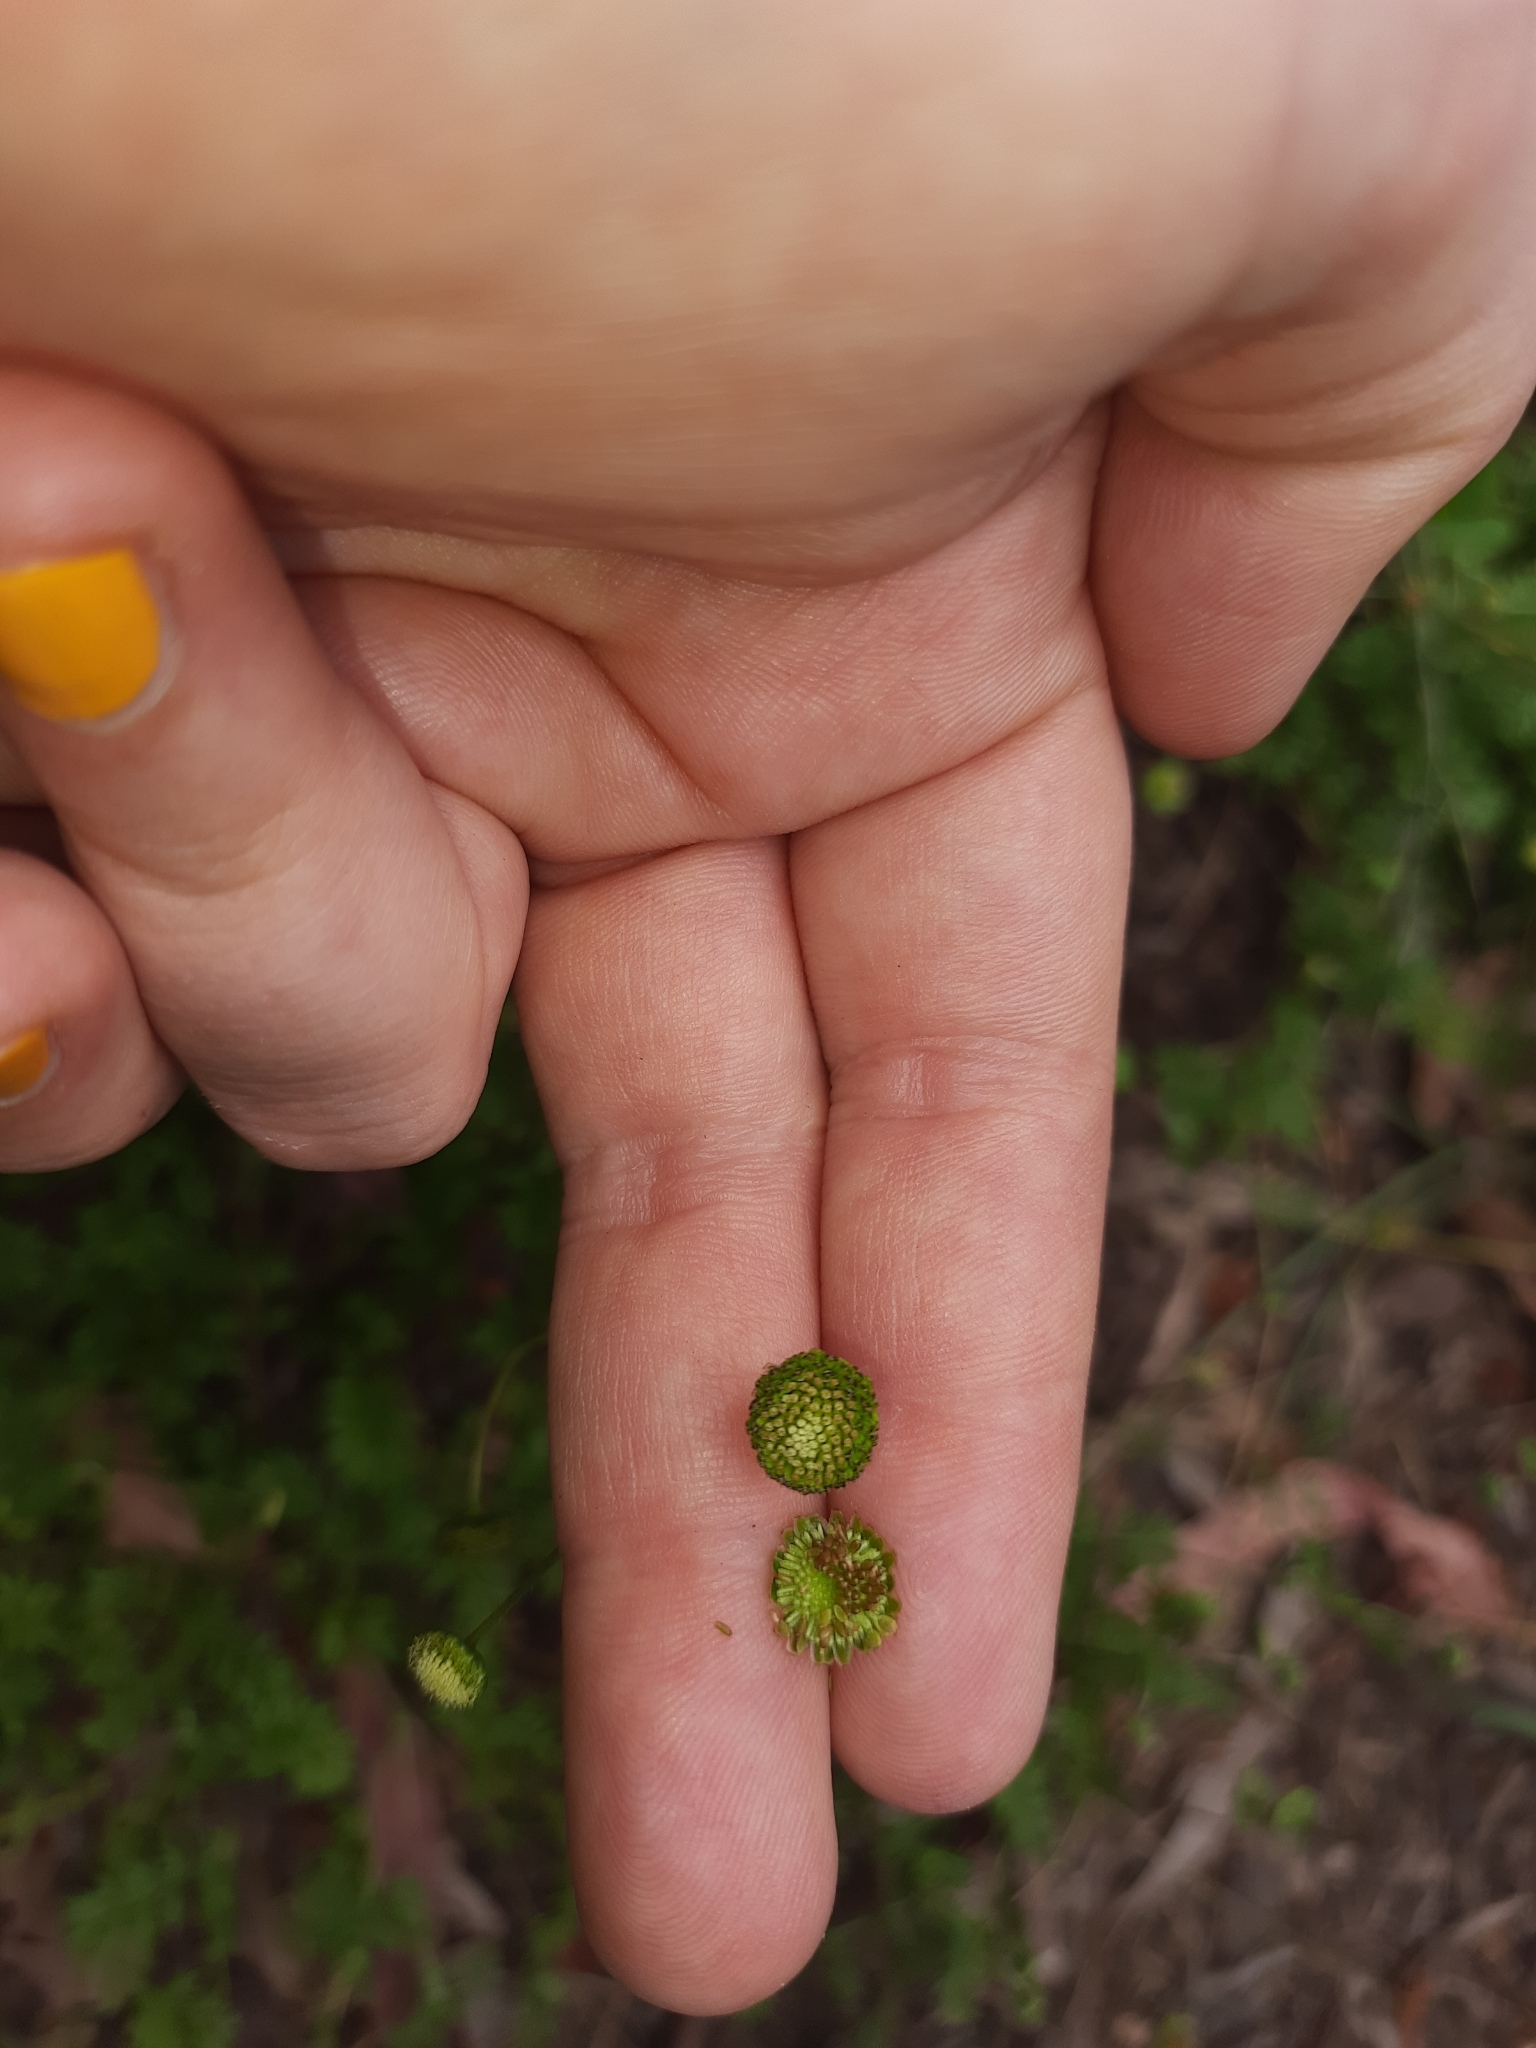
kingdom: Plantae
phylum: Tracheophyta
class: Magnoliopsida
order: Asterales
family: Asteraceae
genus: Cotula
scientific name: Cotula australis
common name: Australian waterbuttons
